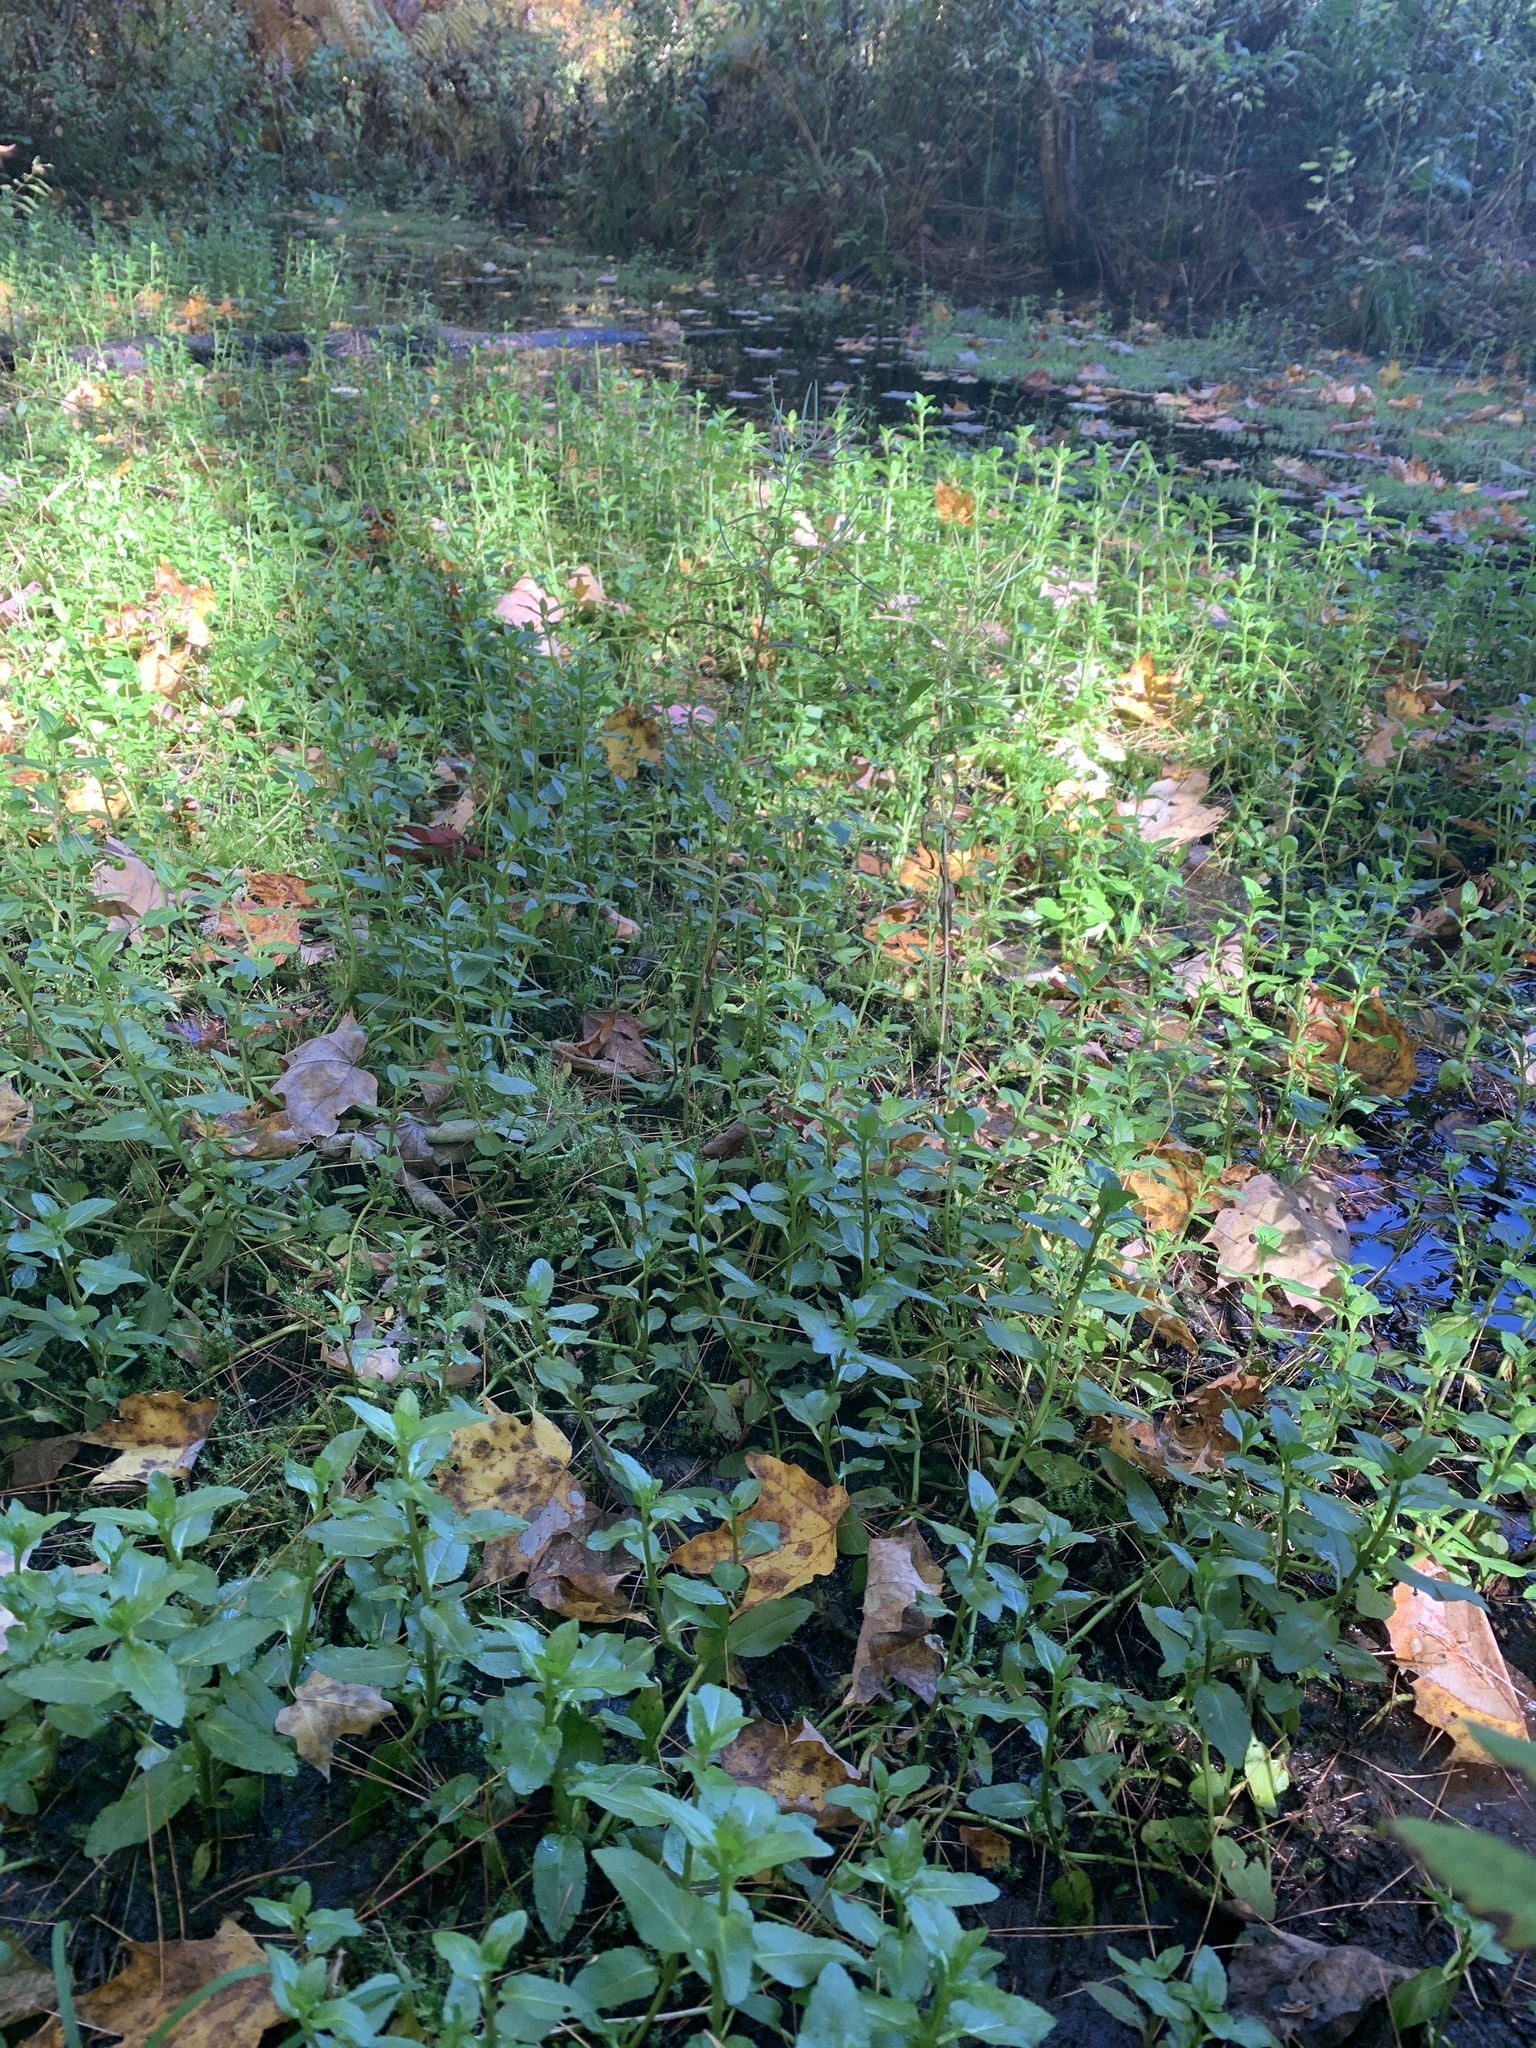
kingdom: Plantae
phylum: Tracheophyta
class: Magnoliopsida
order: Lamiales
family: Plantaginaceae
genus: Veronica
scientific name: Veronica americana
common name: American brooklime
